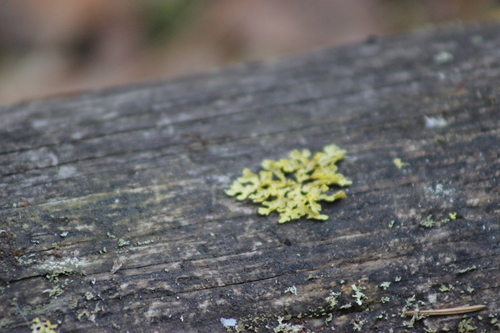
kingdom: Fungi
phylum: Ascomycota
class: Lecanoromycetes
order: Lecanorales
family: Parmeliaceae
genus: Vulpicida
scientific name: Vulpicida pinastri
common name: Powdered sunshine lichen
